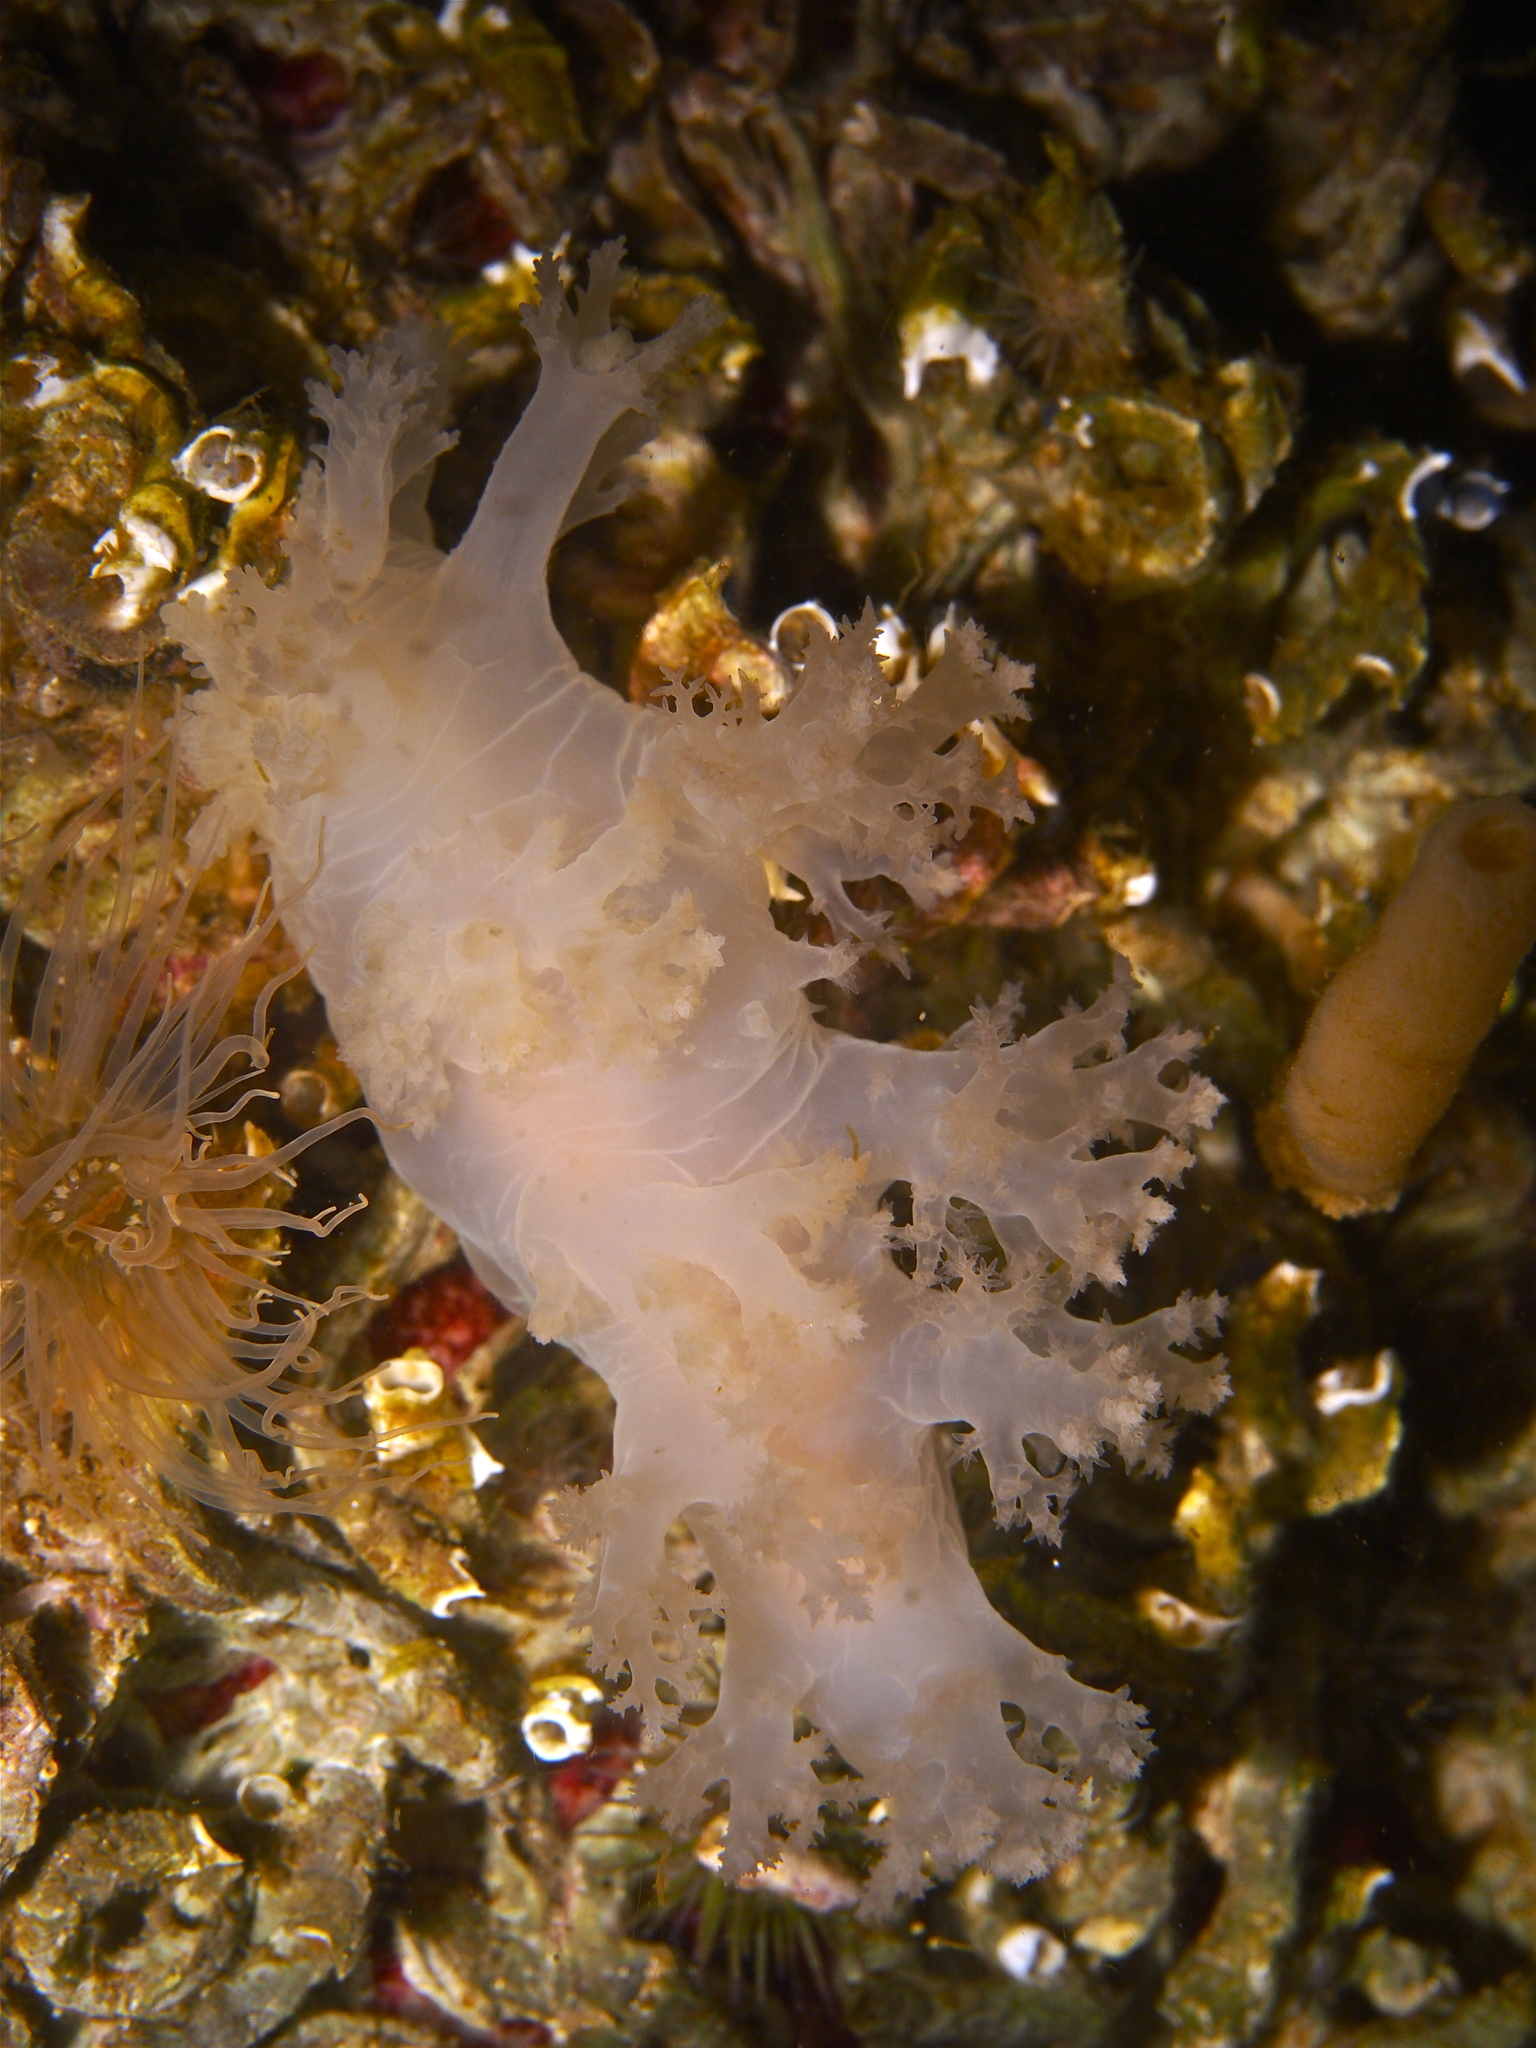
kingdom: Animalia
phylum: Mollusca
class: Gastropoda
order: Nudibranchia
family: Dendronotidae
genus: Dendronotus
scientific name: Dendronotus lacteus
